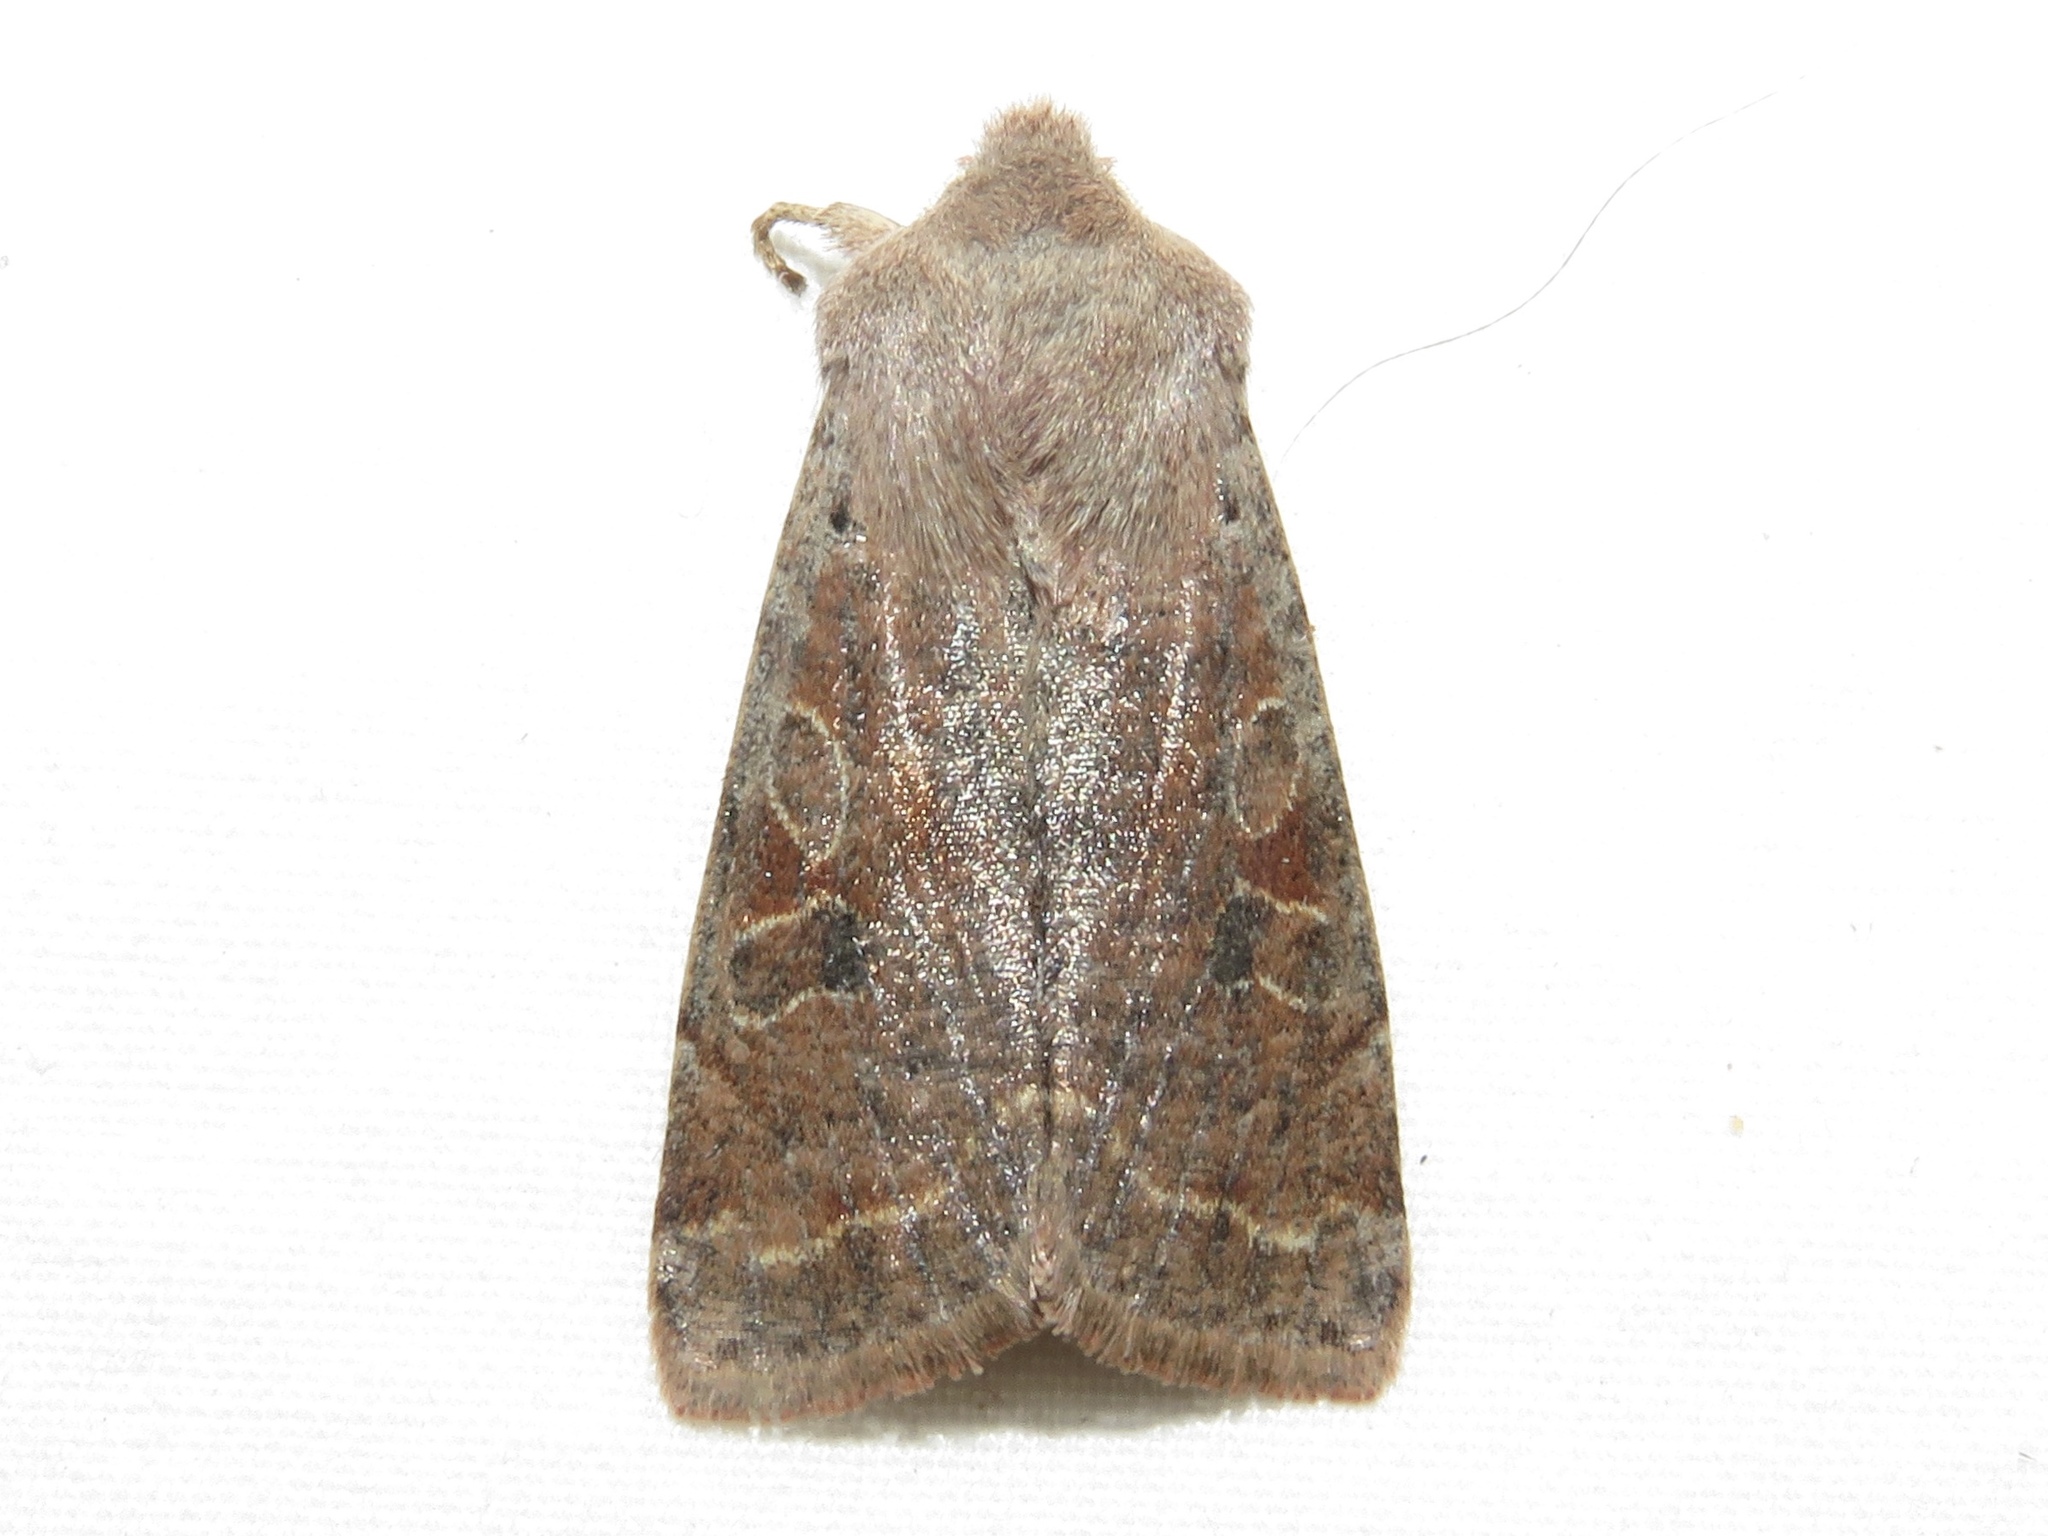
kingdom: Animalia
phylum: Arthropoda
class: Insecta
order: Lepidoptera
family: Noctuidae
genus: Orthosia
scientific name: Orthosia hibisci
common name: Green fruitworm
